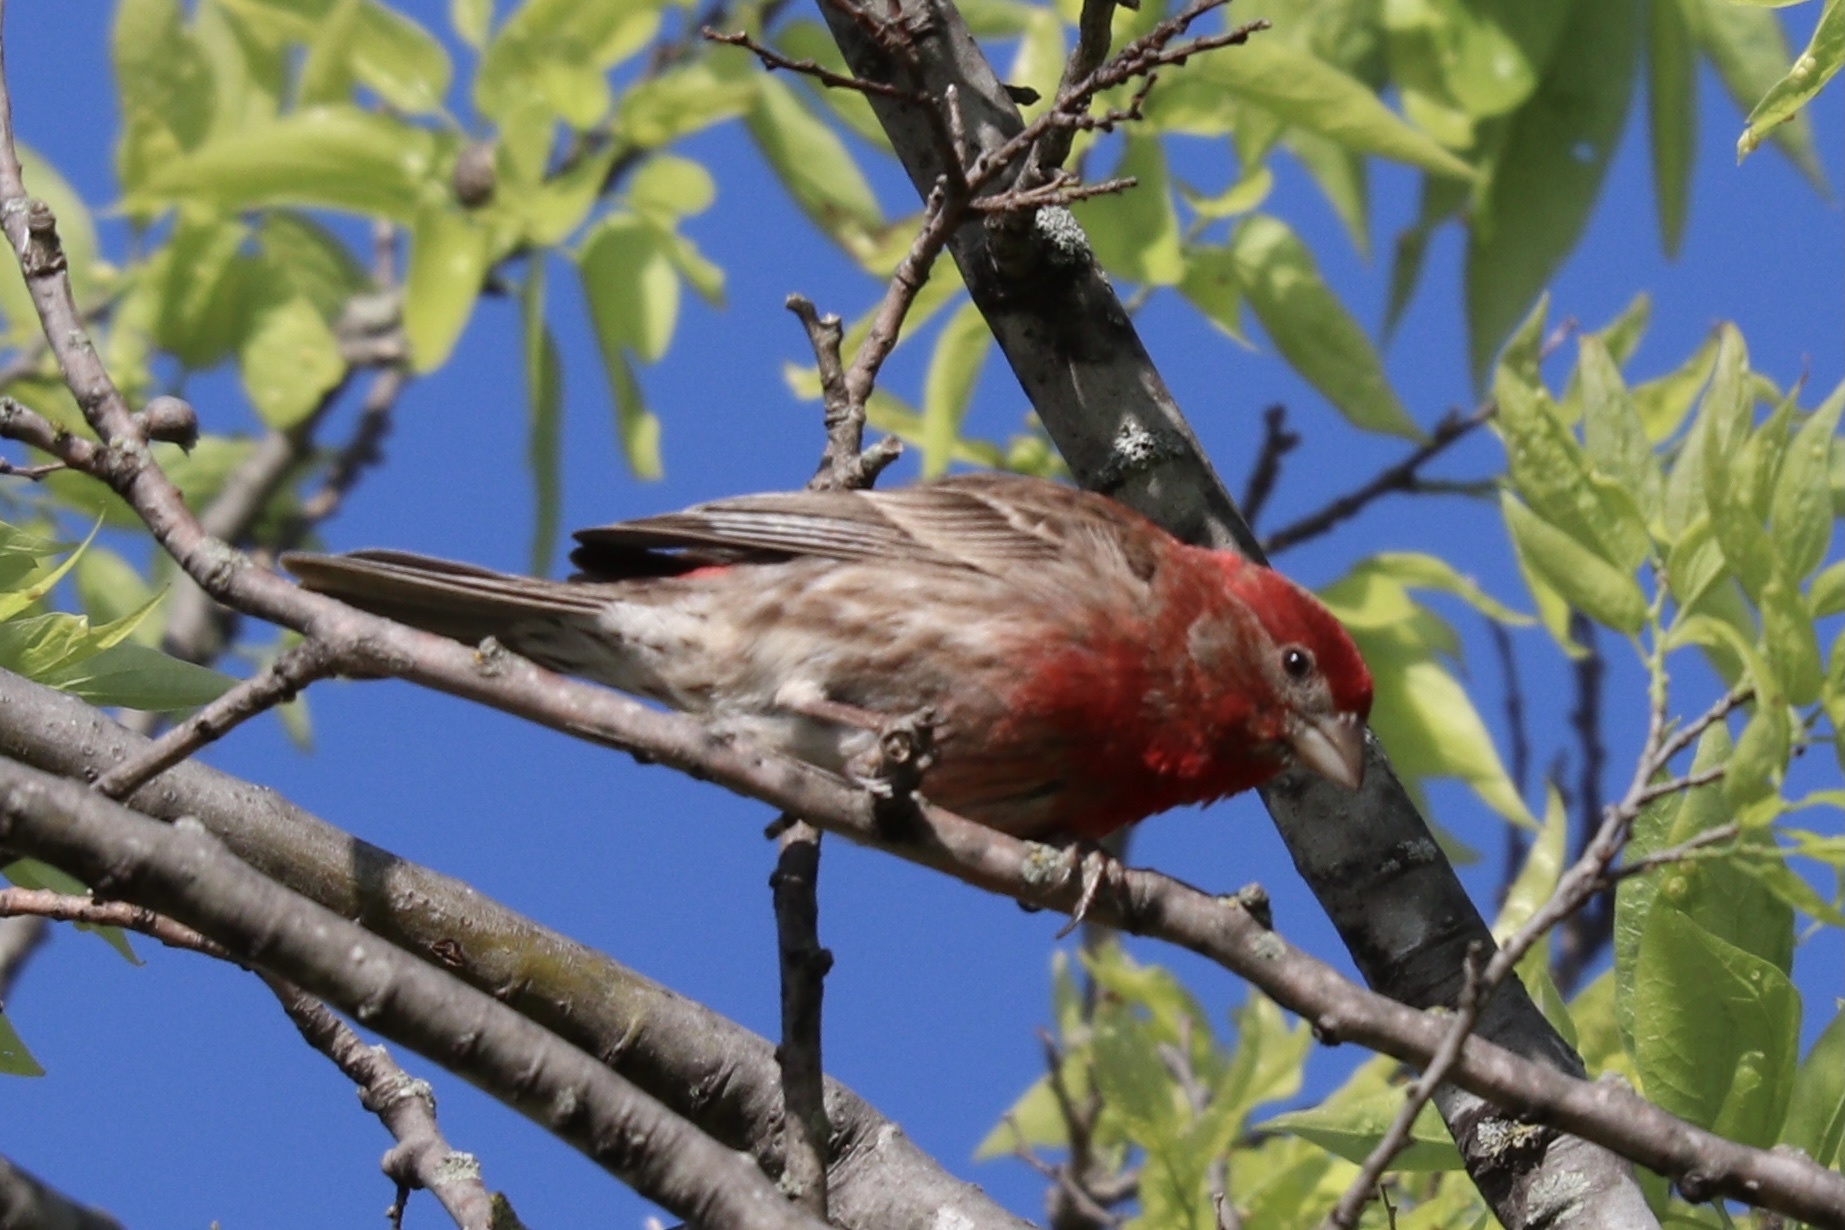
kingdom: Animalia
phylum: Chordata
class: Aves
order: Passeriformes
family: Fringillidae
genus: Haemorhous
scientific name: Haemorhous mexicanus
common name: House finch
